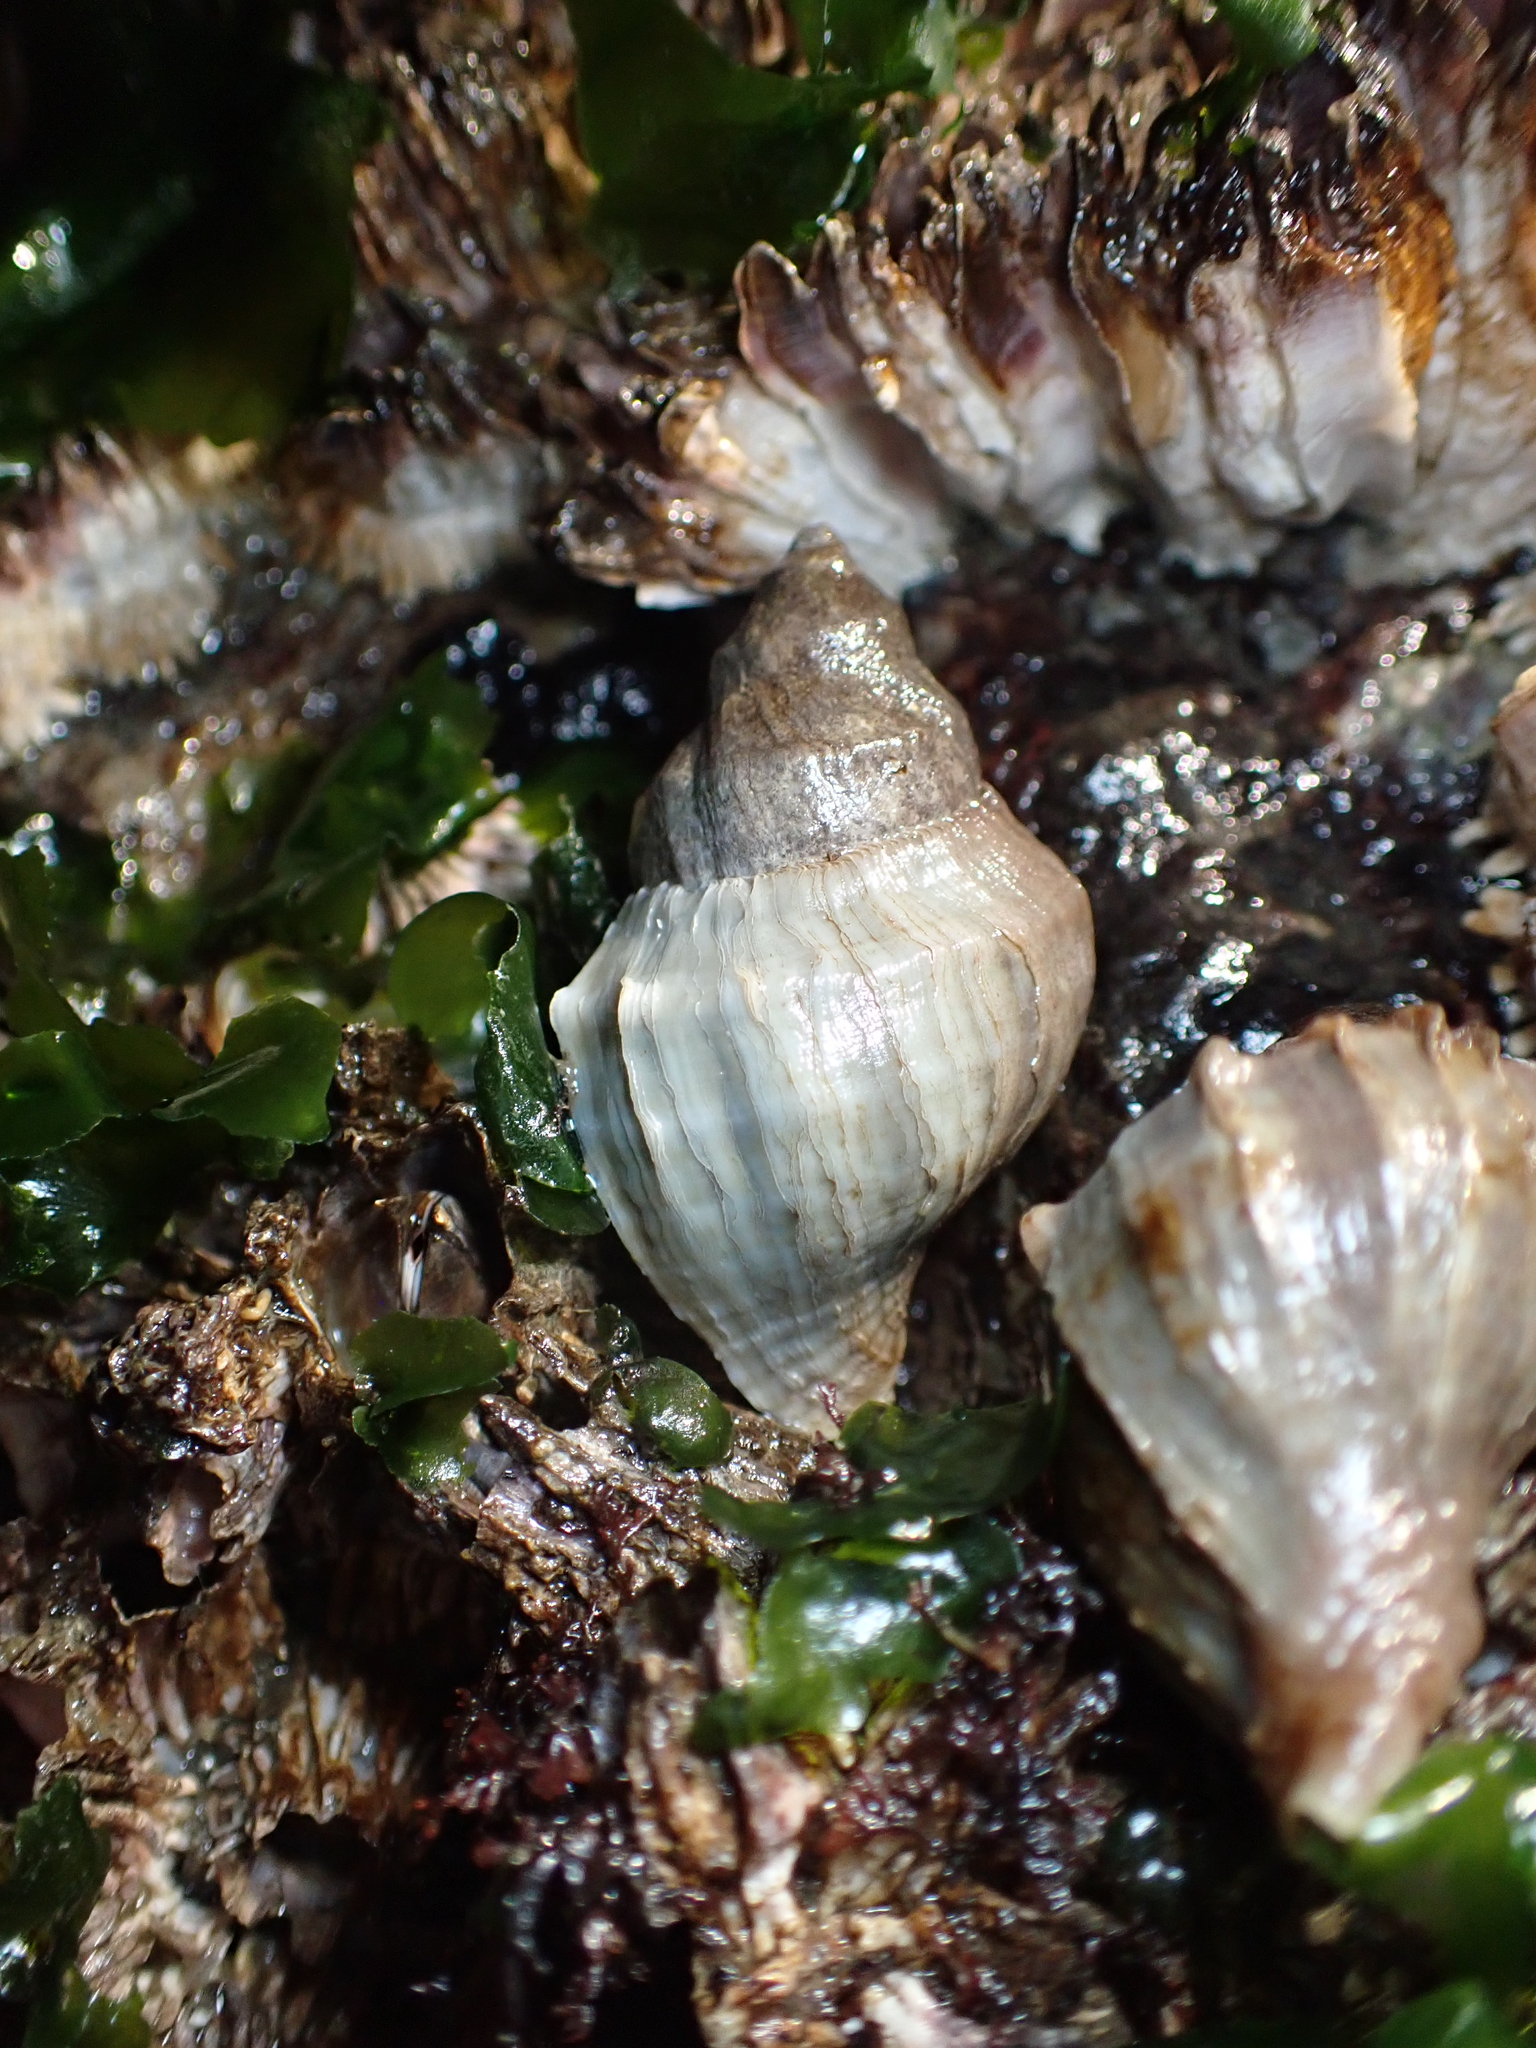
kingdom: Animalia
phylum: Mollusca
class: Gastropoda
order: Neogastropoda
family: Muricidae
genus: Nucella
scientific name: Nucella lamellosa
